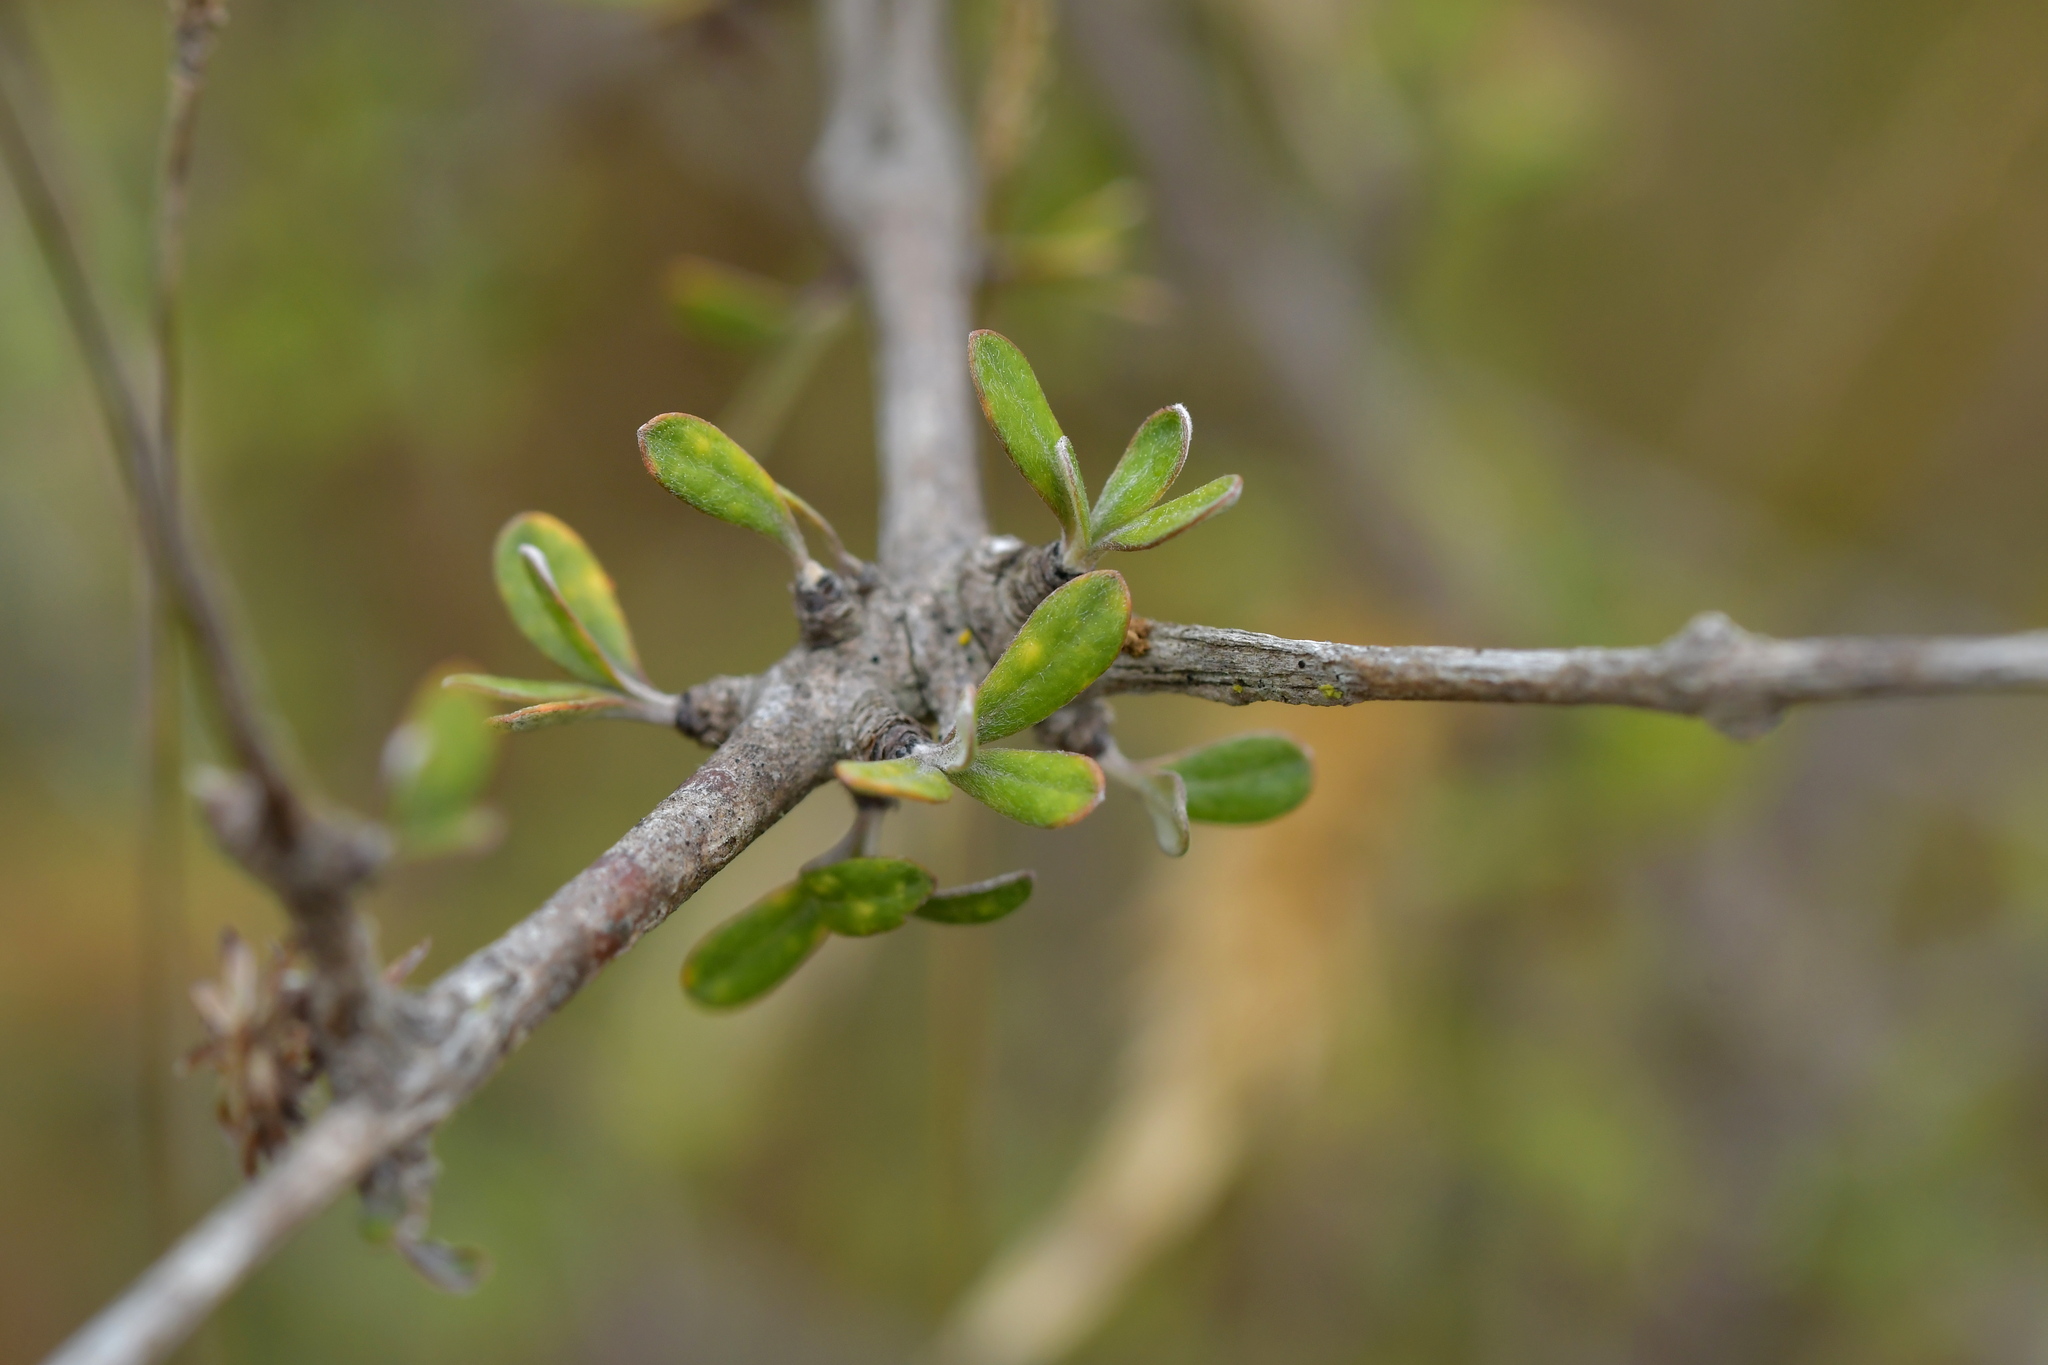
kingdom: Plantae
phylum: Tracheophyta
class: Magnoliopsida
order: Asterales
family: Asteraceae
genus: Olearia
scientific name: Olearia adenocarpa
